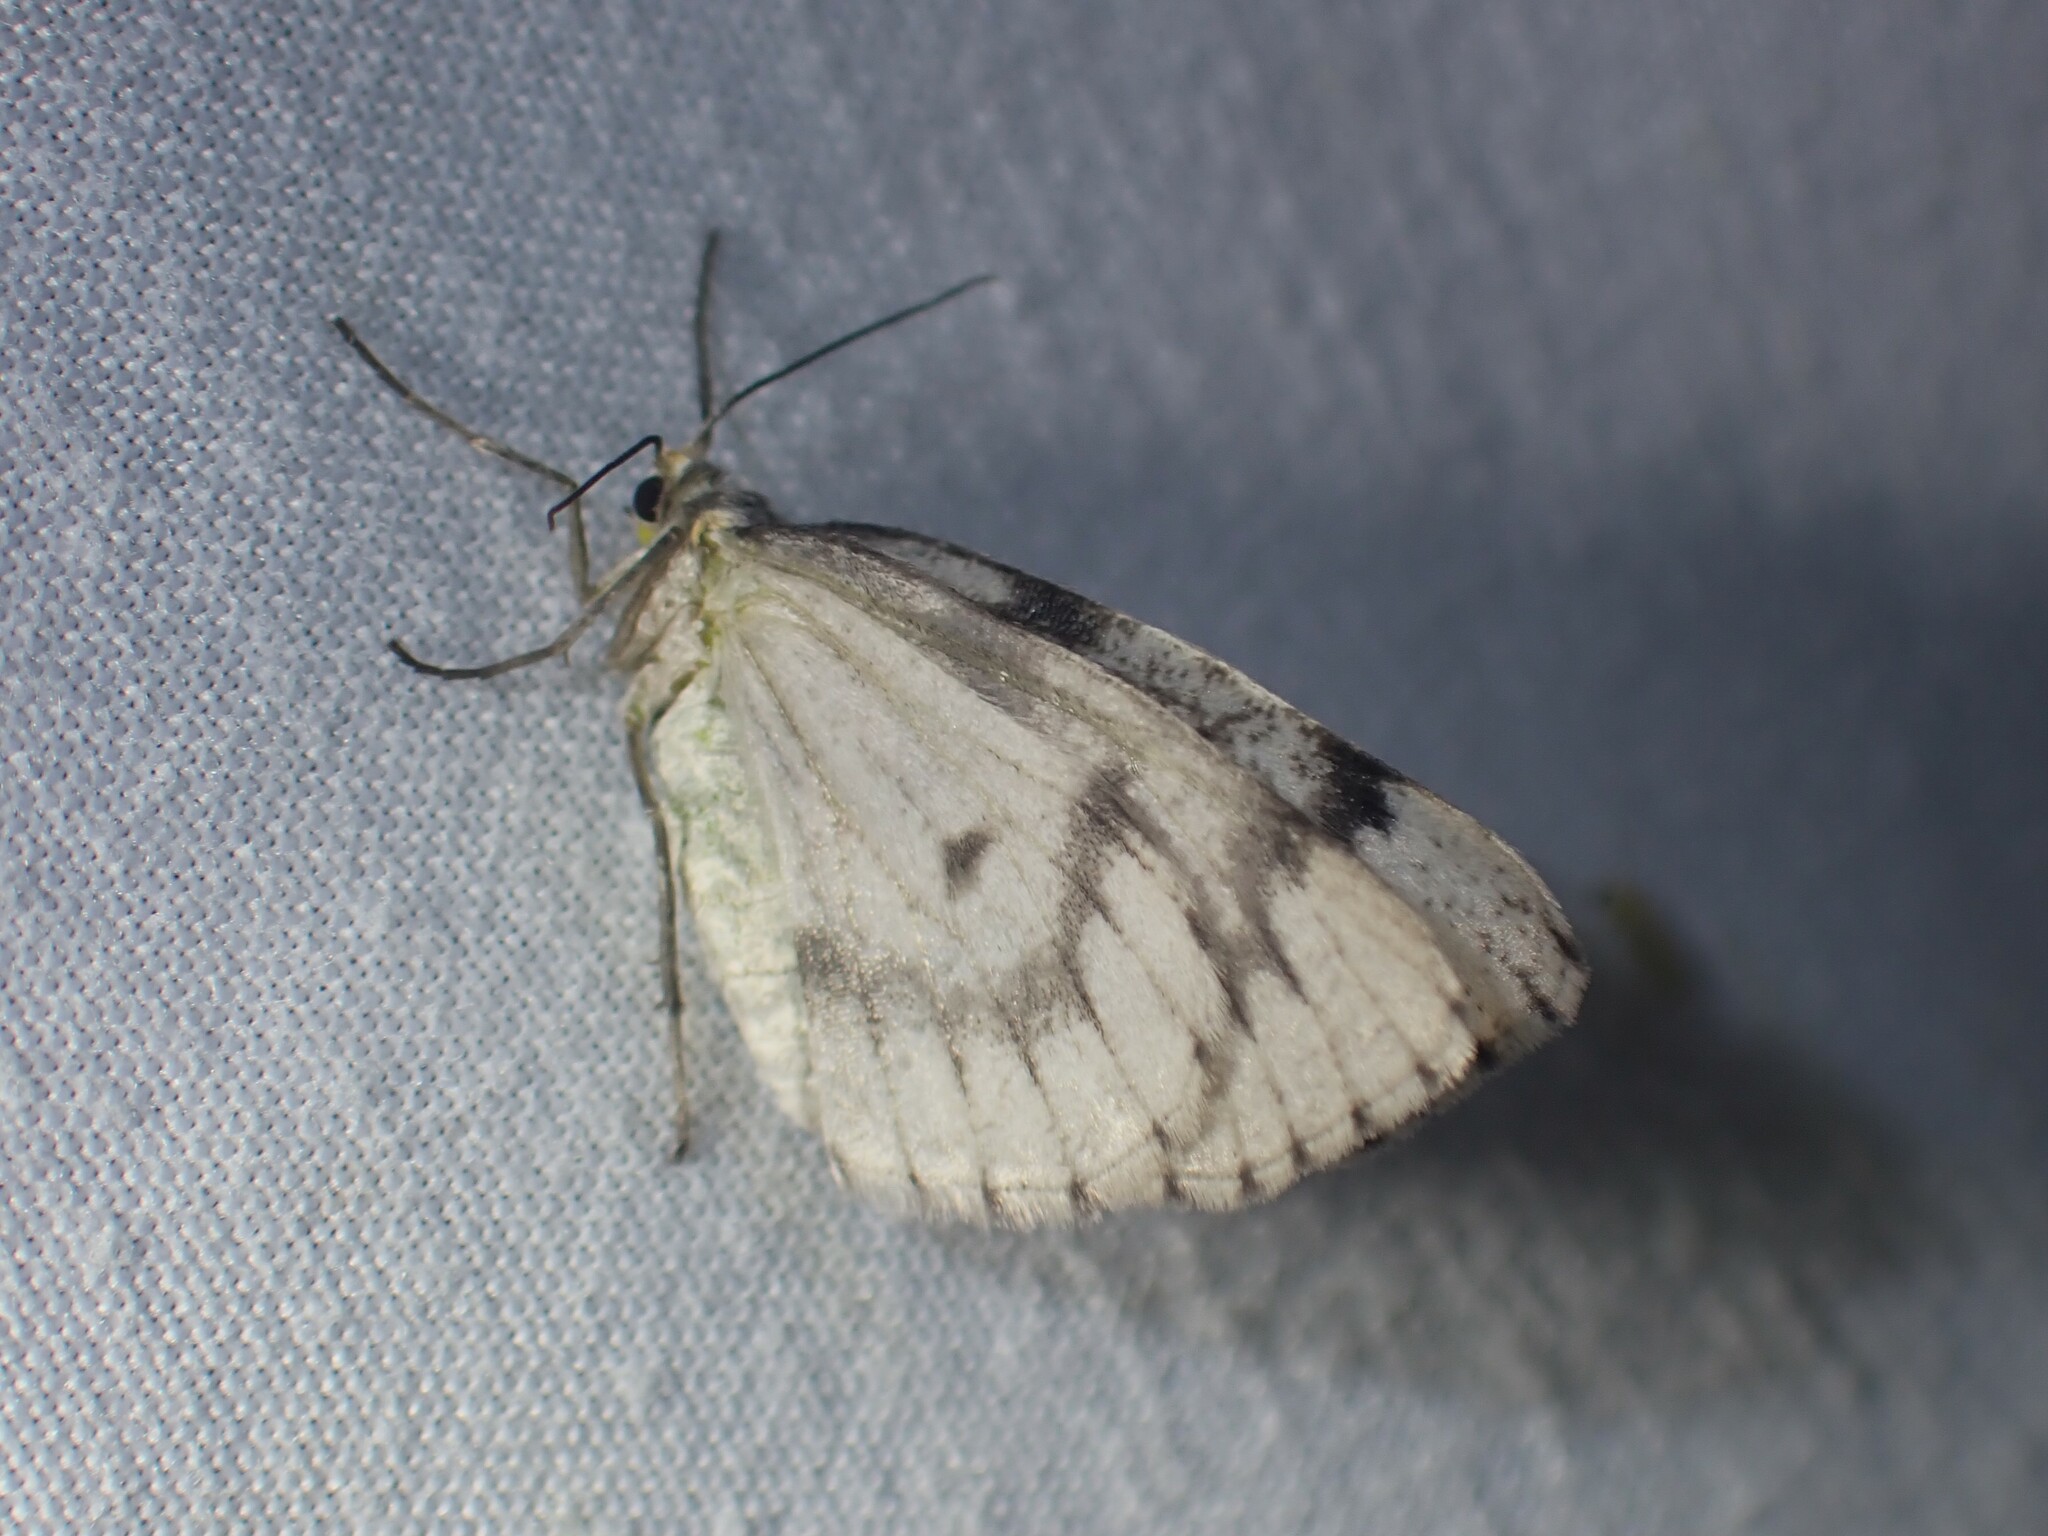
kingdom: Animalia
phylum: Arthropoda
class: Insecta
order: Lepidoptera
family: Geometridae
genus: Nepytia
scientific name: Nepytia canosaria
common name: False hemlock looper
